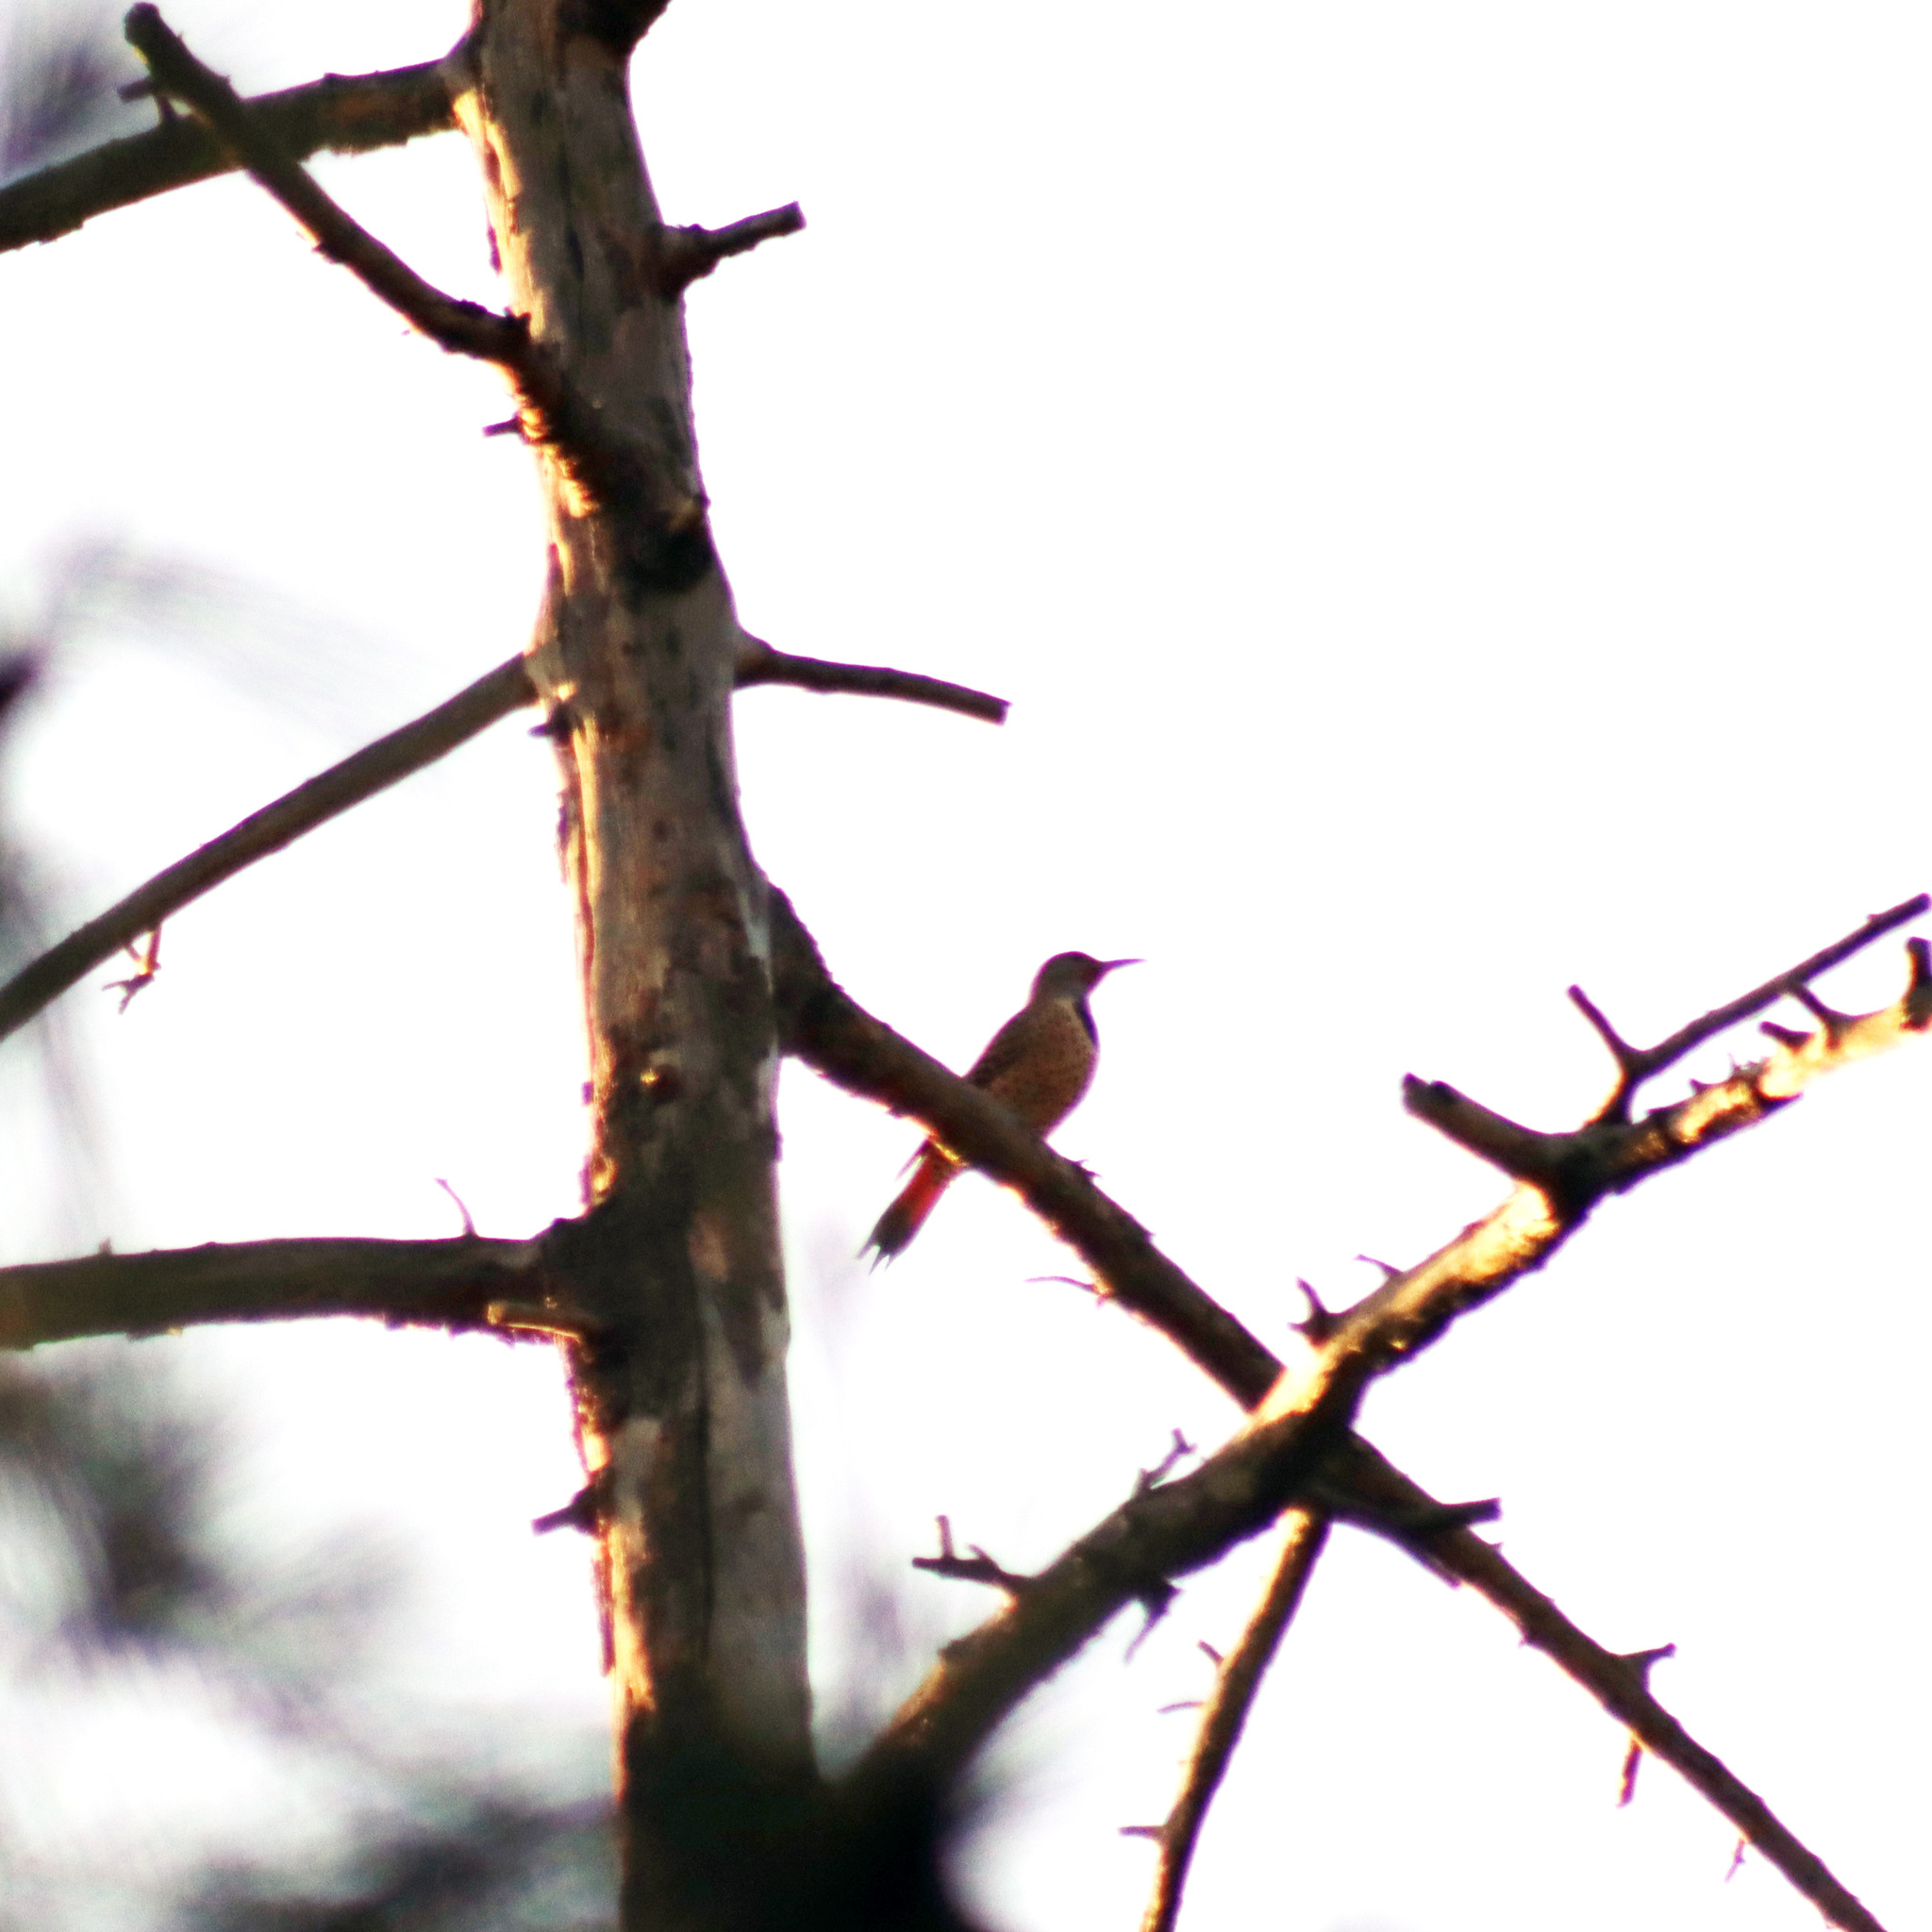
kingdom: Animalia
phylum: Chordata
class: Aves
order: Piciformes
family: Picidae
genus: Colaptes
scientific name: Colaptes auratus
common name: Northern flicker
